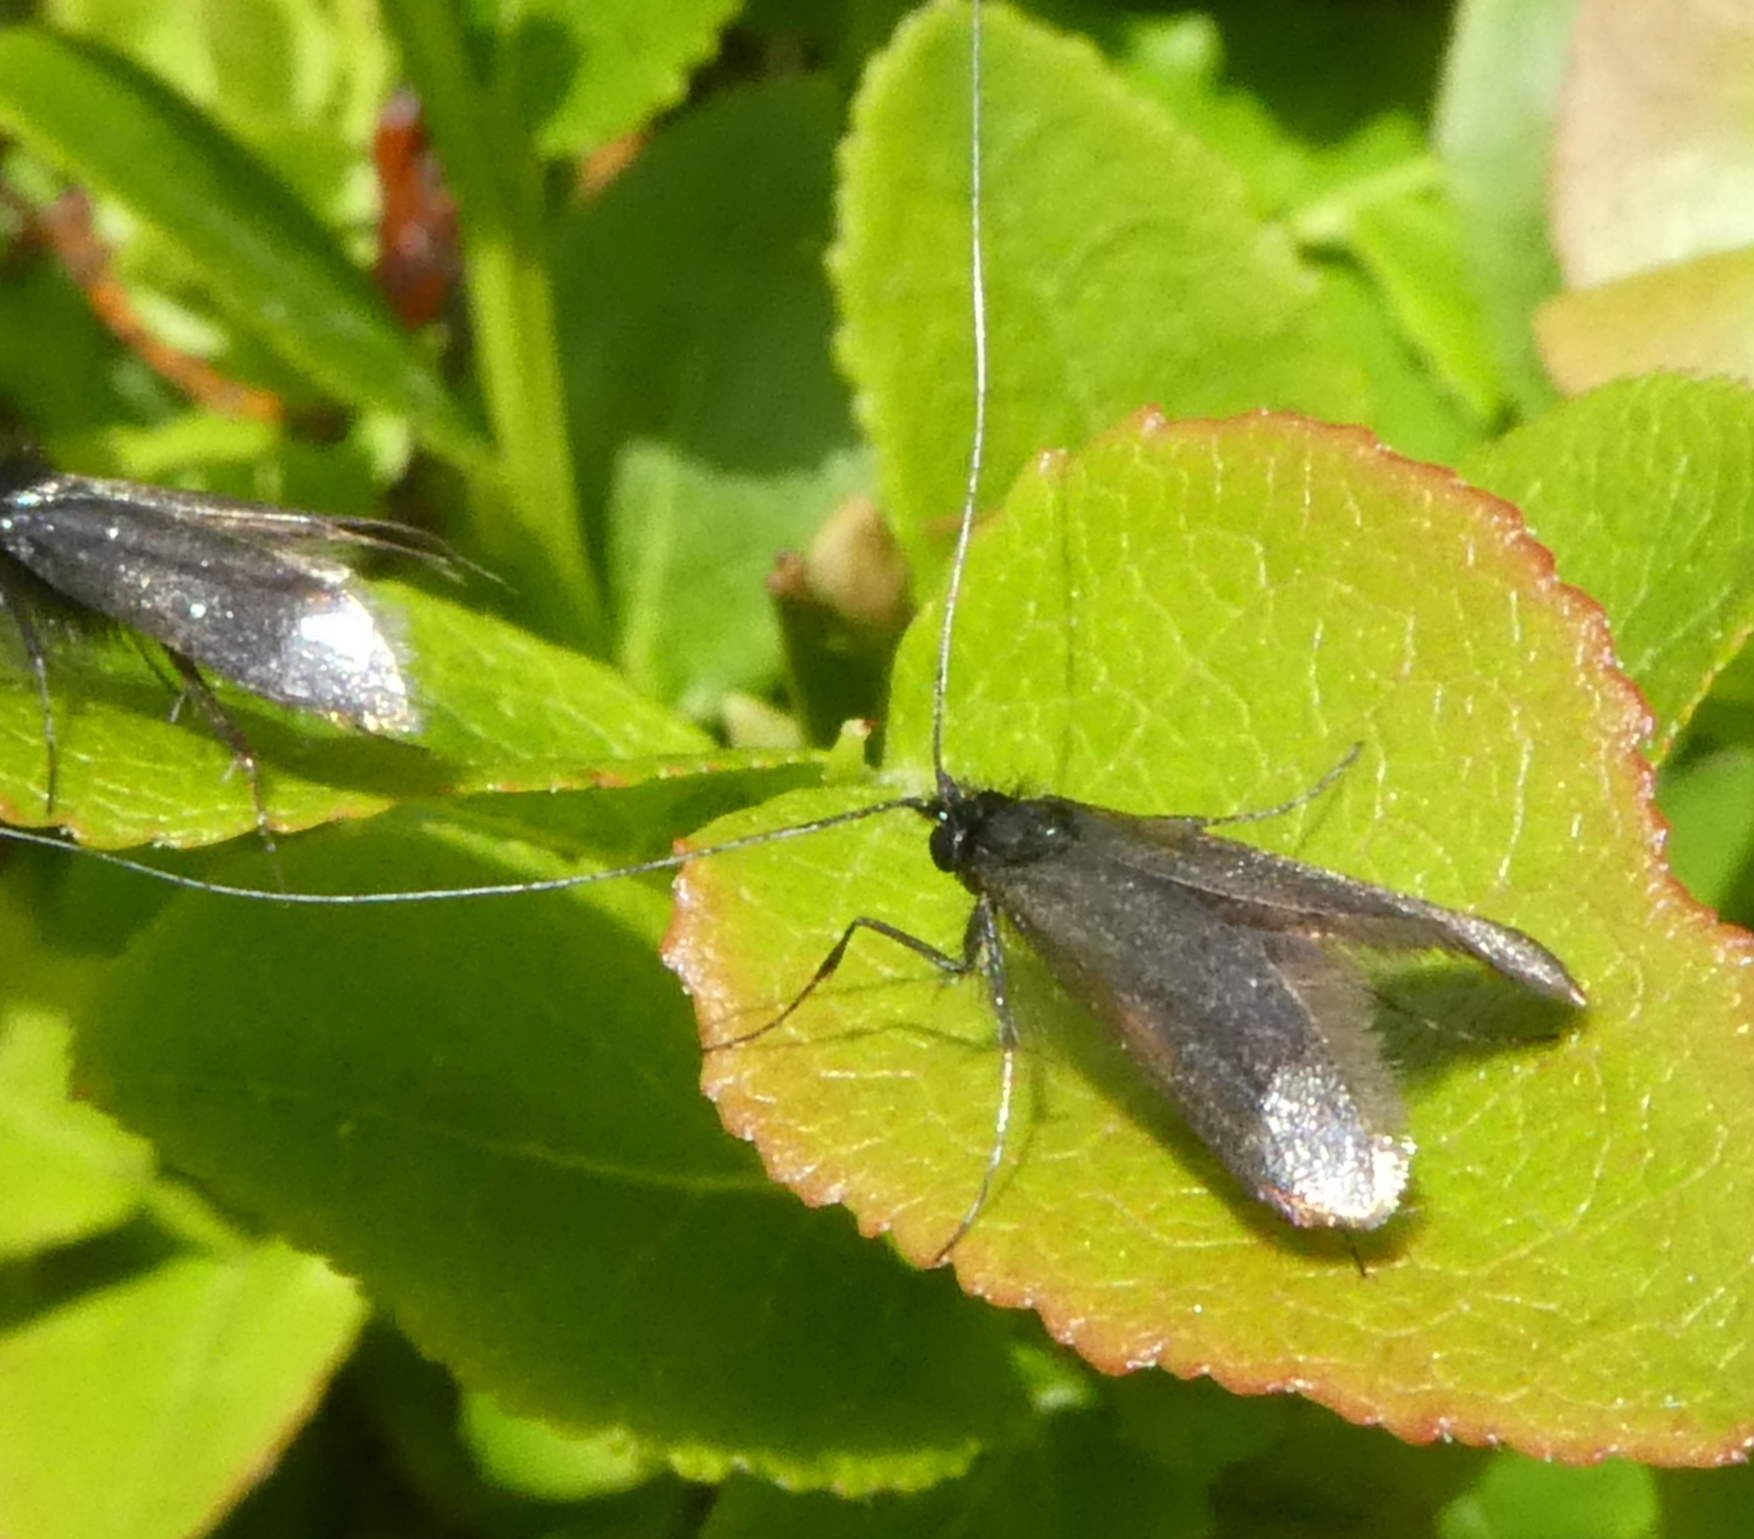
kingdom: Animalia
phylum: Arthropoda
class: Insecta
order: Lepidoptera
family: Adelidae
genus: Adela
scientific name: Adela viridella
